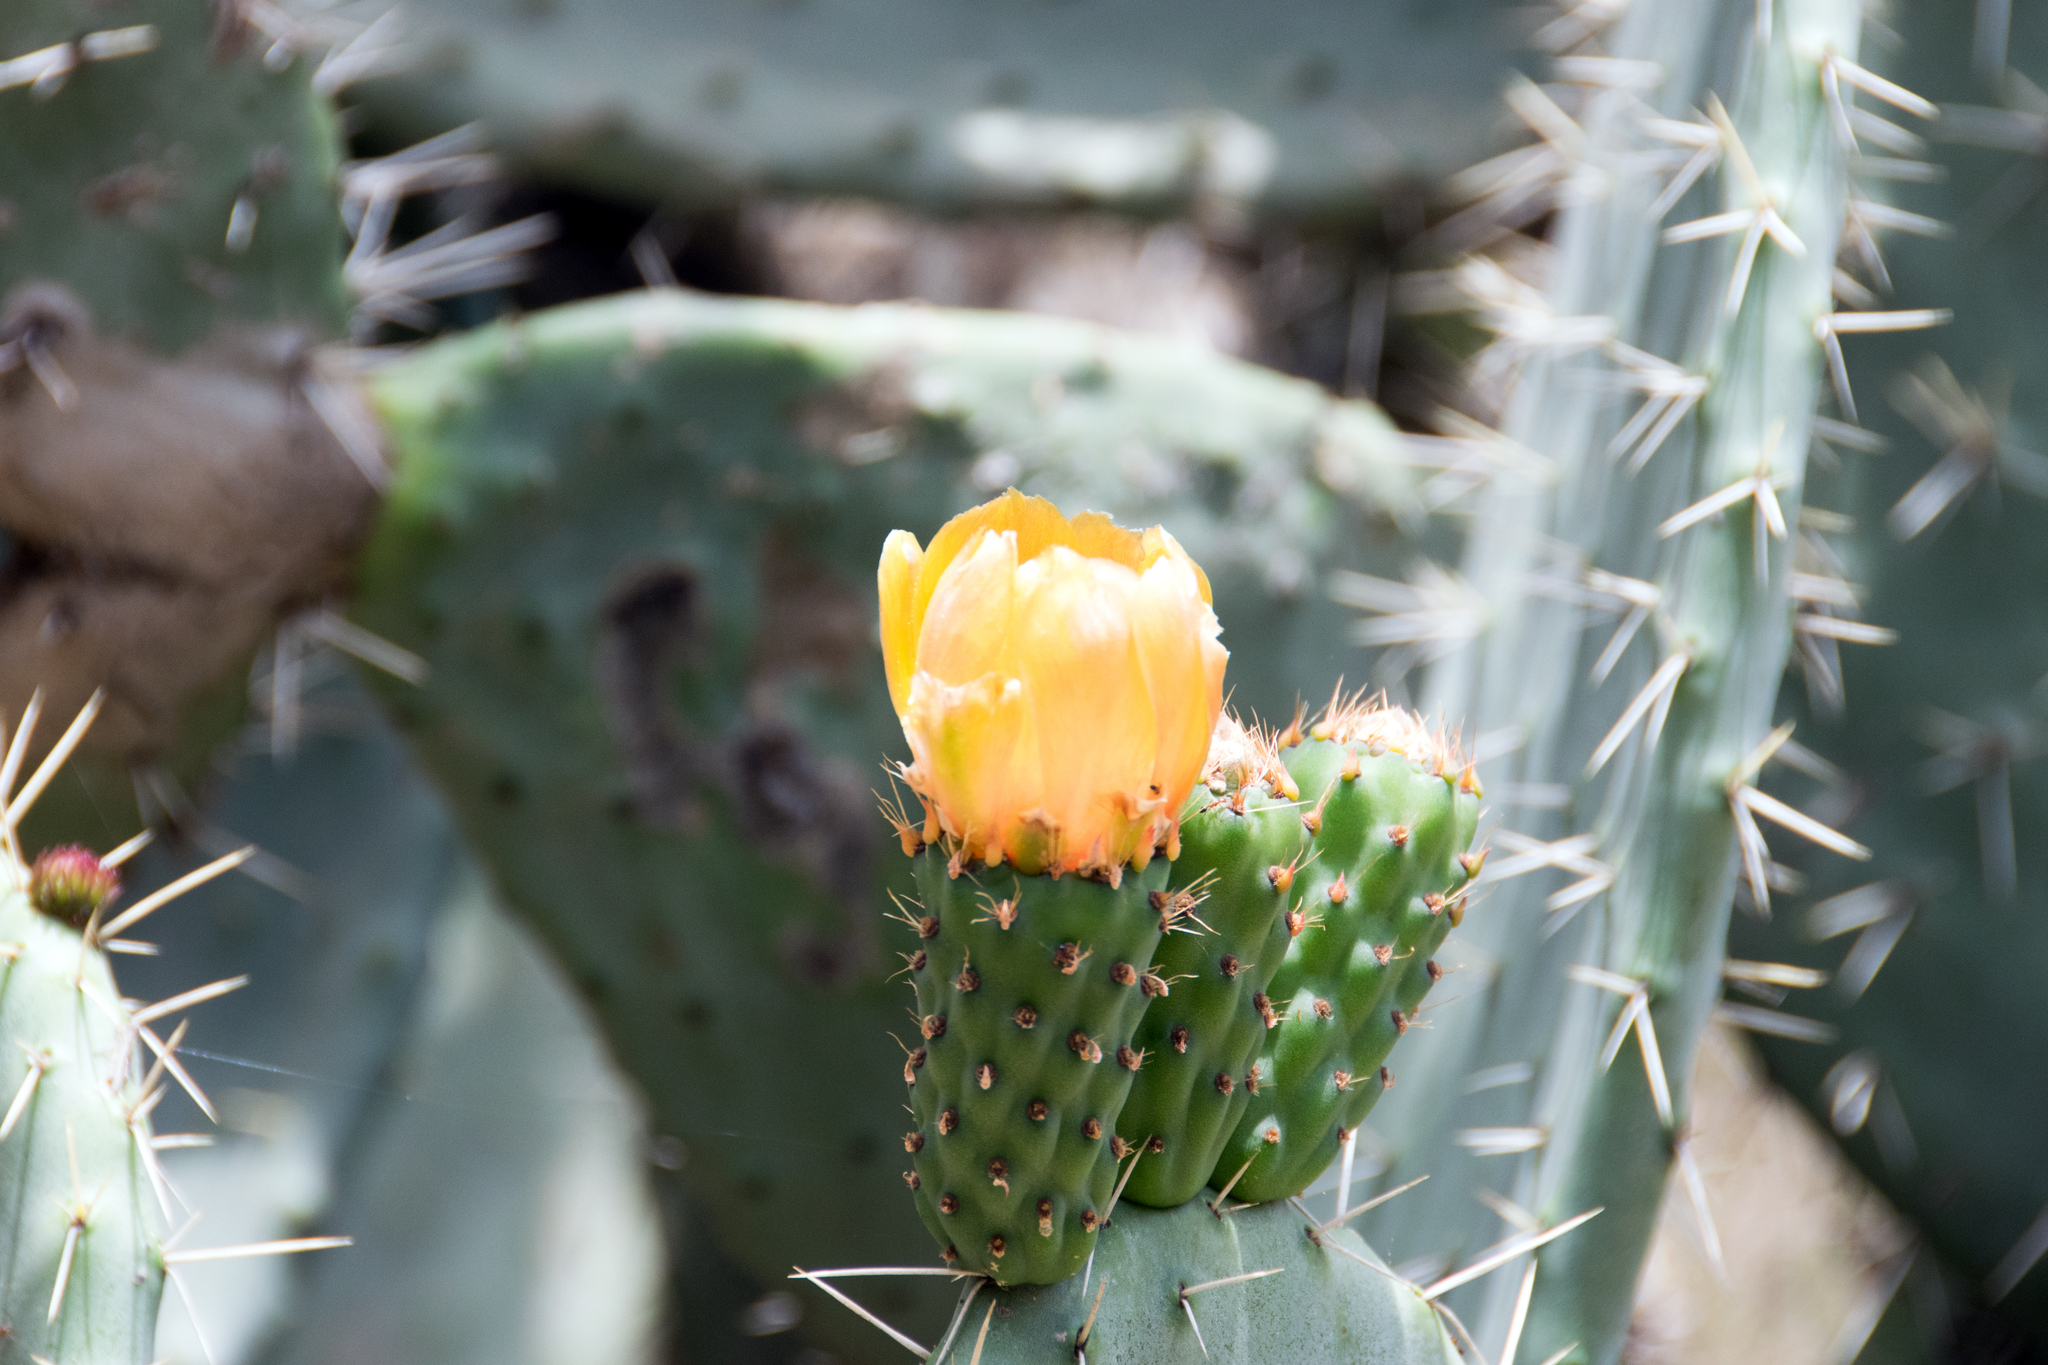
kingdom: Plantae
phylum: Tracheophyta
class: Magnoliopsida
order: Caryophyllales
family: Cactaceae
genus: Opuntia
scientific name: Opuntia ficus-indica
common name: Barbary fig
